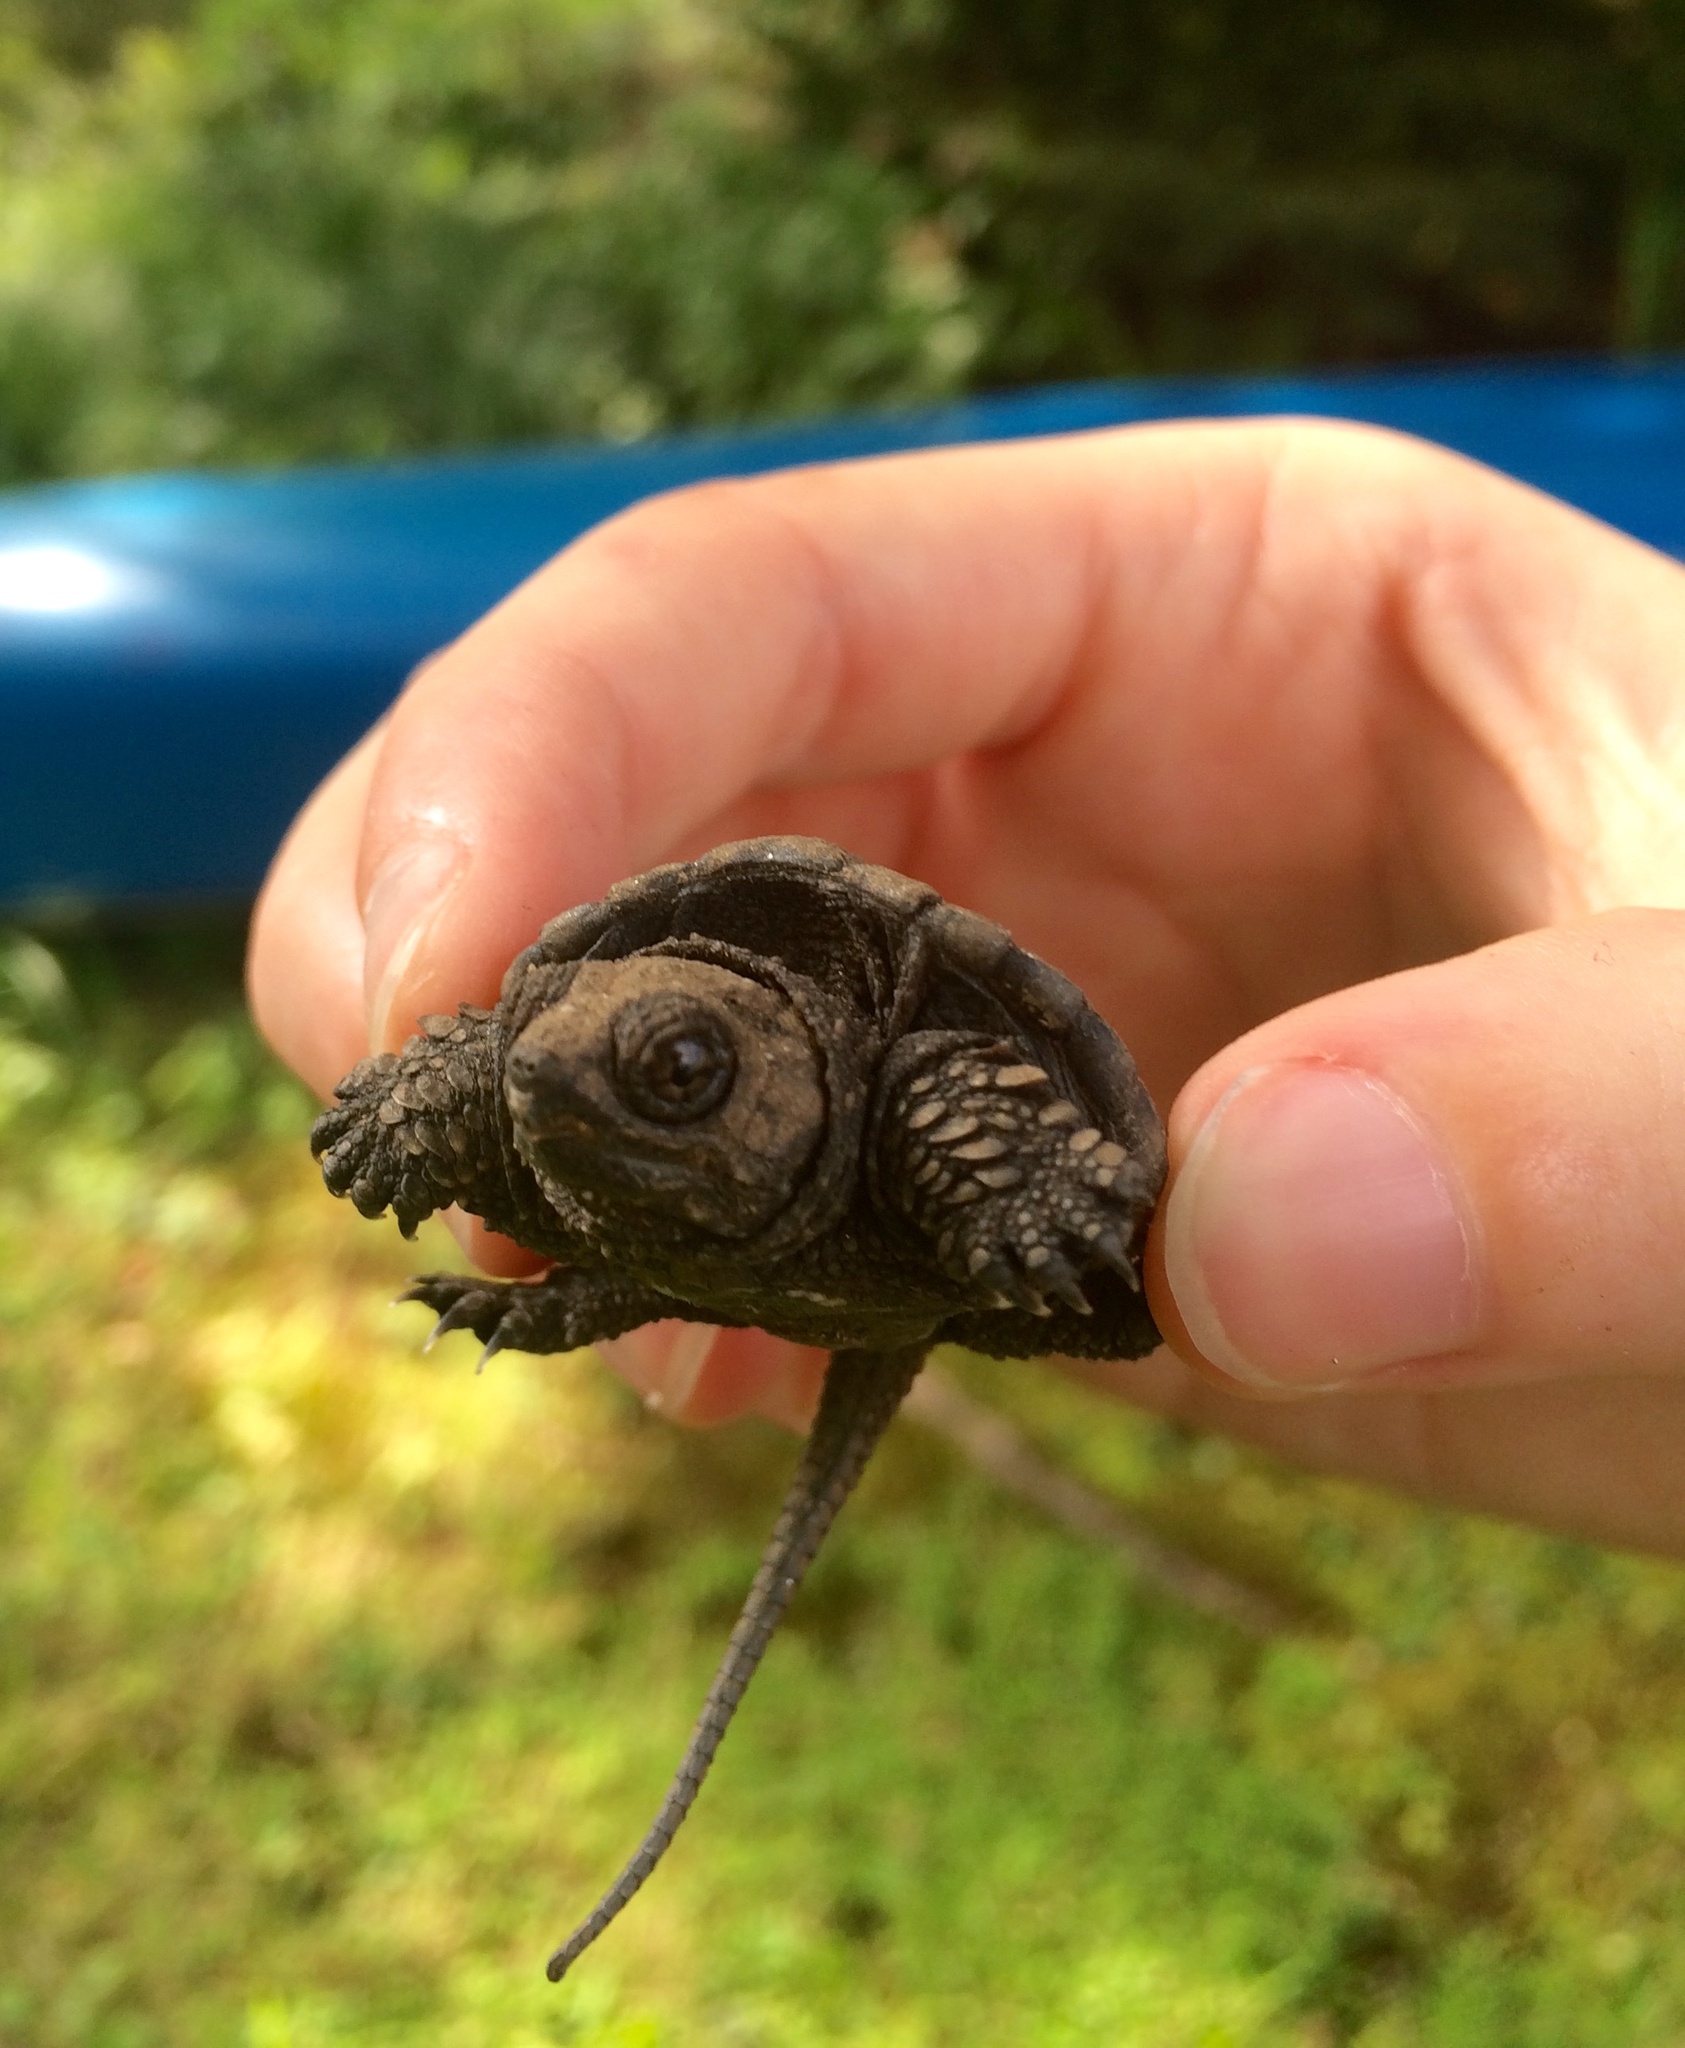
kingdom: Animalia
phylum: Chordata
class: Testudines
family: Chelydridae
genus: Chelydra
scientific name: Chelydra serpentina
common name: Common snapping turtle
